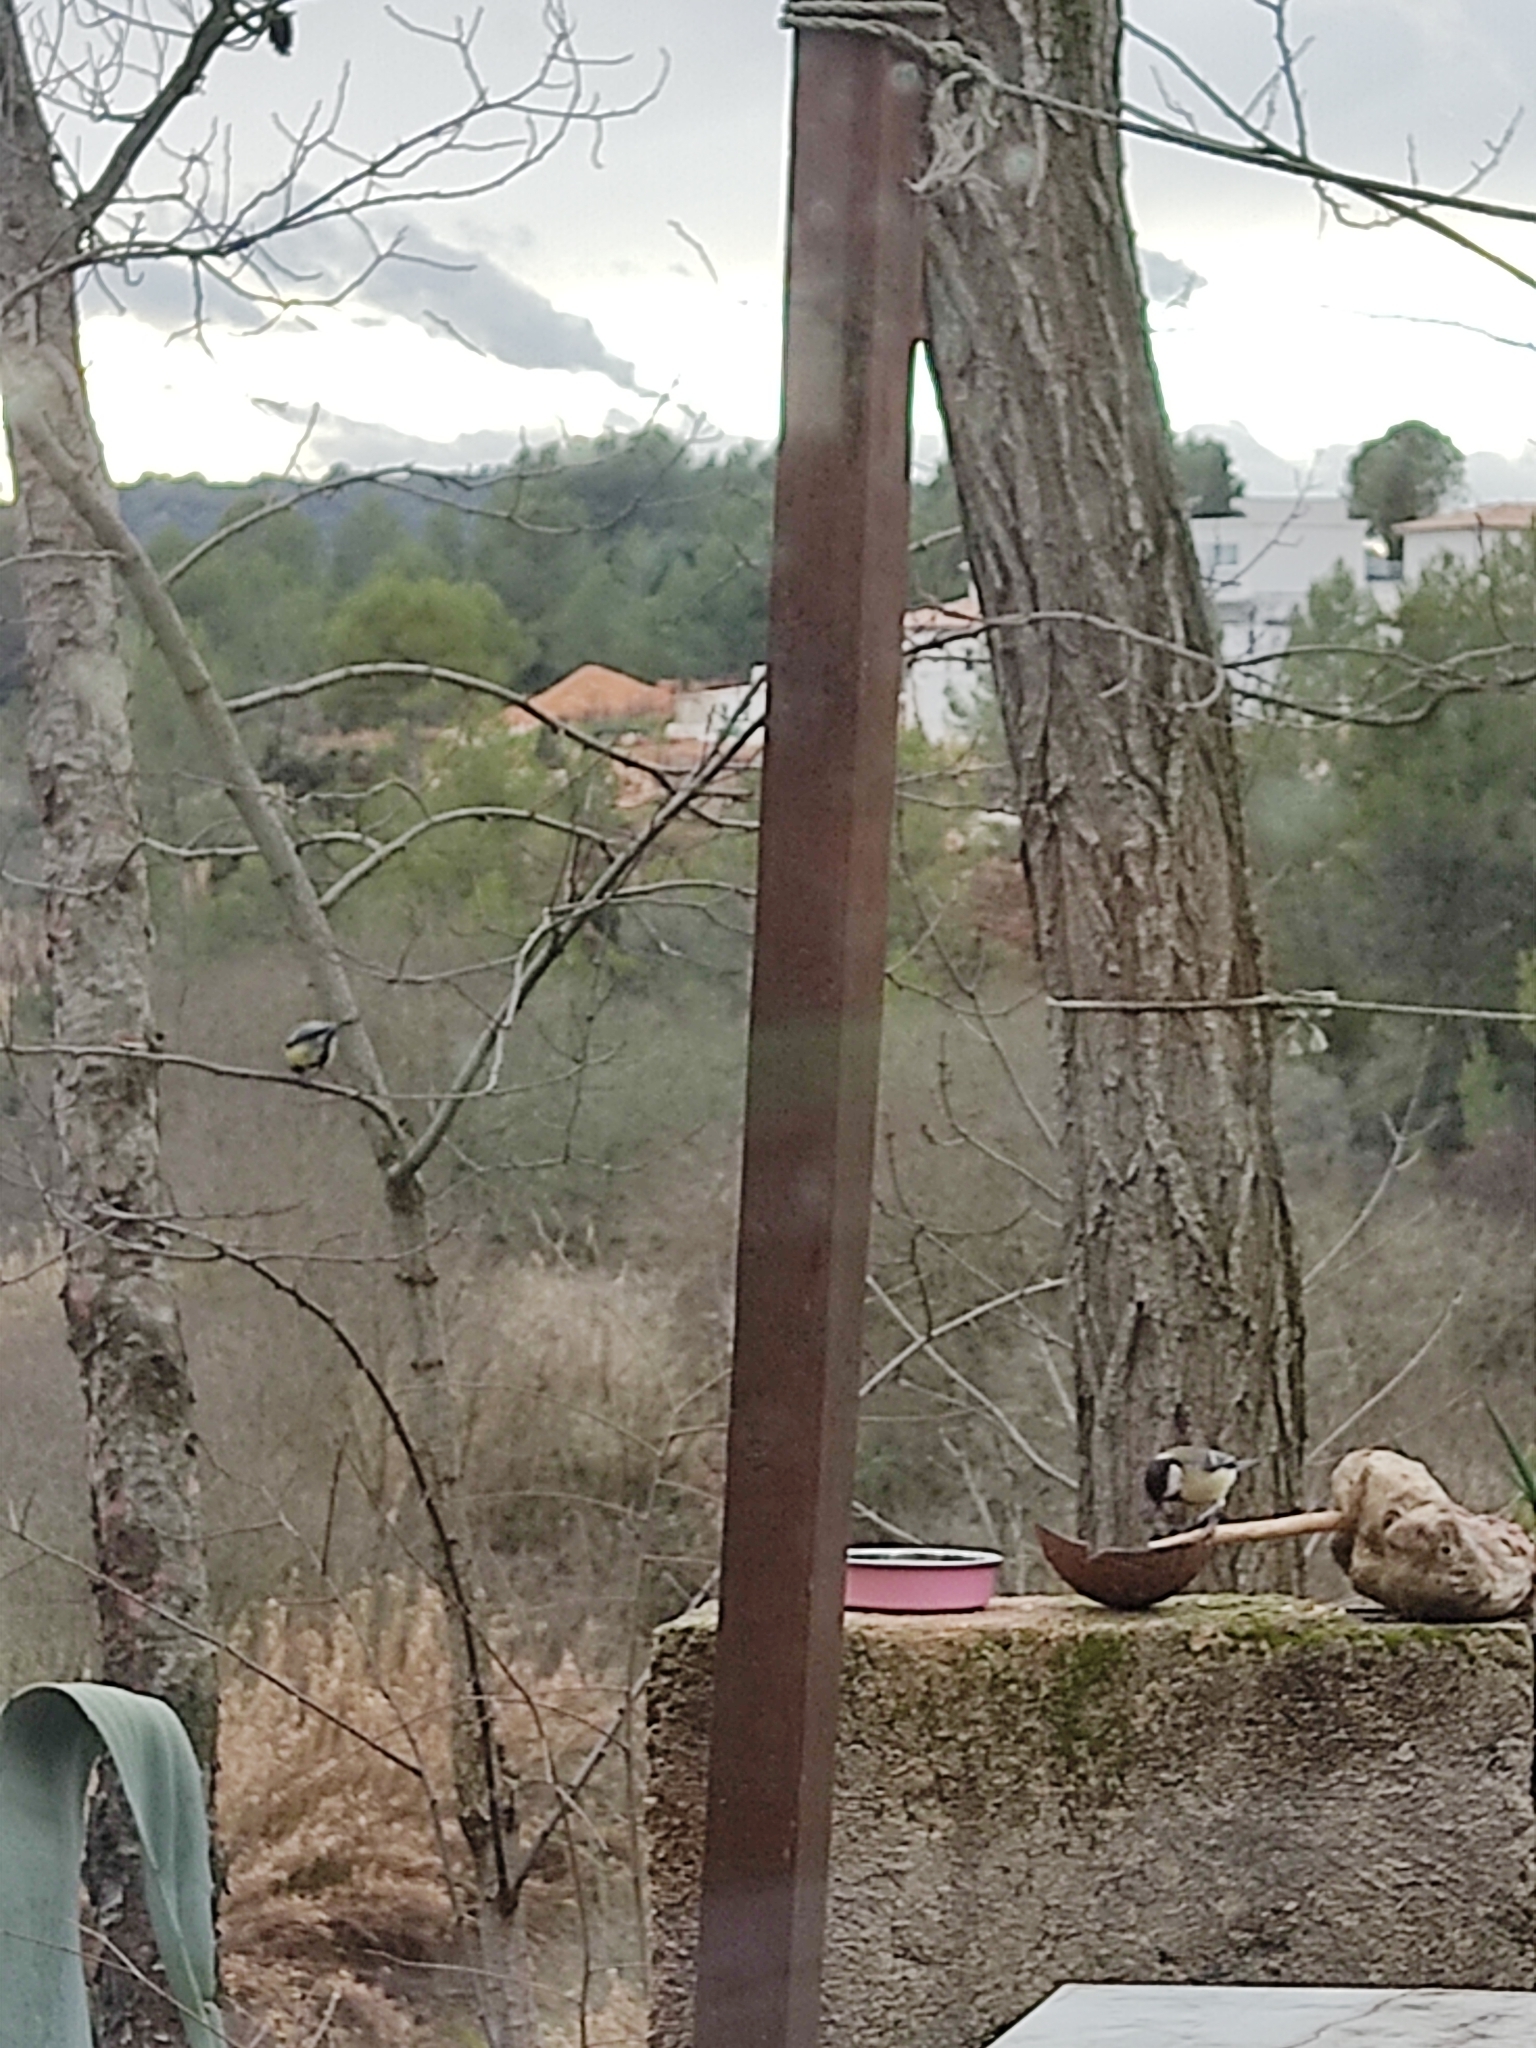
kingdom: Animalia
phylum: Chordata
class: Aves
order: Passeriformes
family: Paridae
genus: Parus
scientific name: Parus major
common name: Great tit
